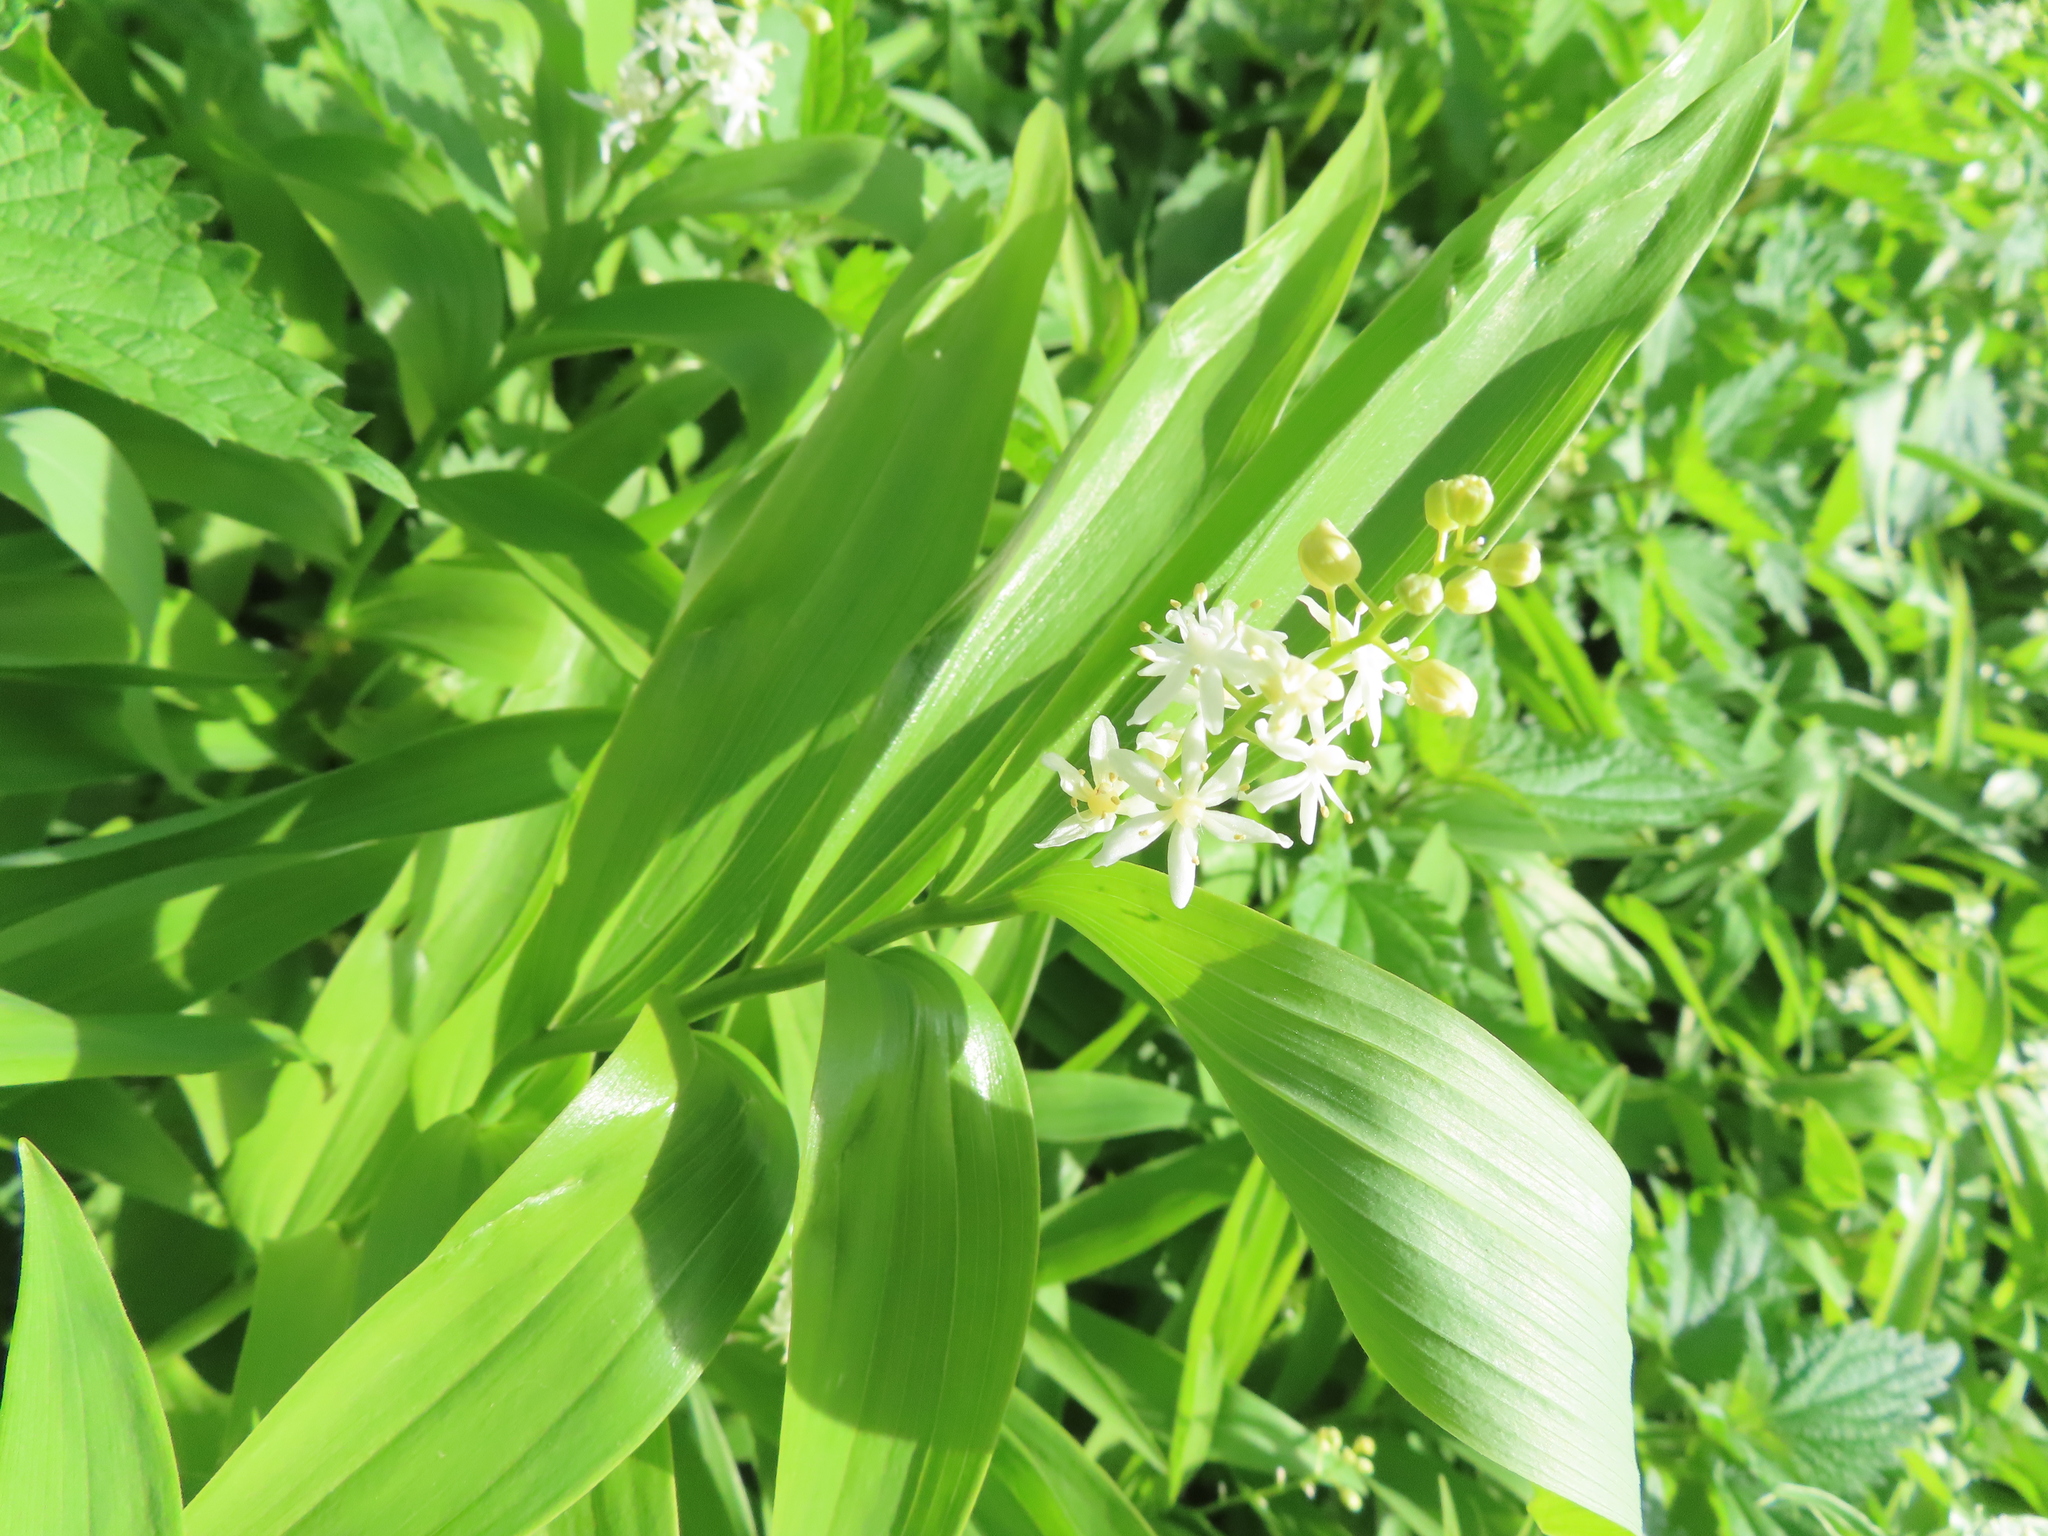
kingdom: Plantae
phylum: Tracheophyta
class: Liliopsida
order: Asparagales
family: Asparagaceae
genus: Maianthemum
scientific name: Maianthemum stellatum
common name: Little false solomon's seal
